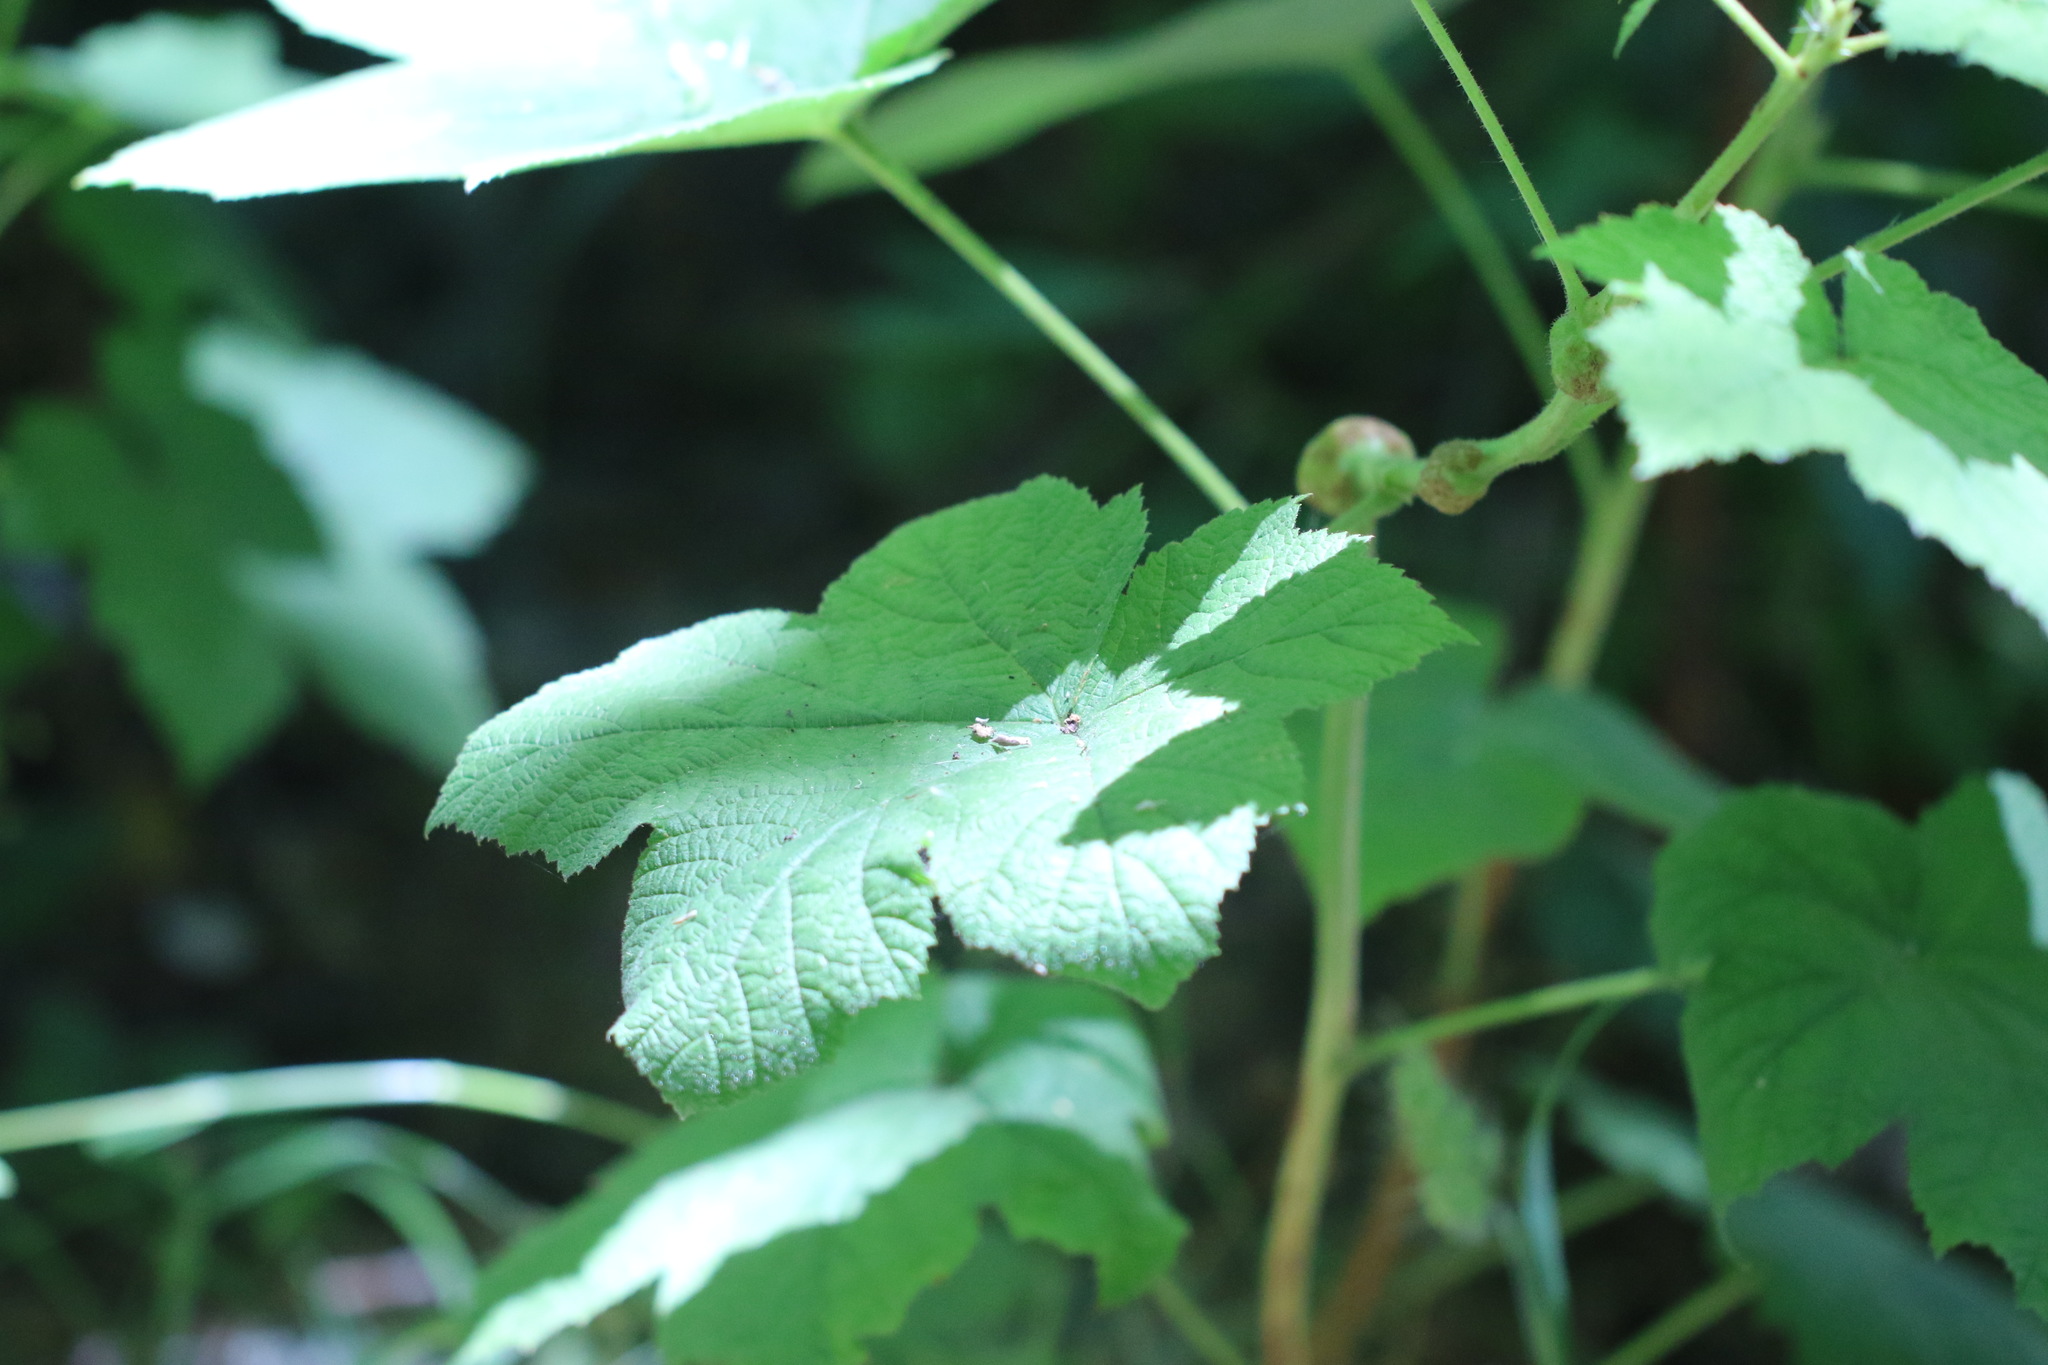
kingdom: Animalia
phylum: Arthropoda
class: Insecta
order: Hymenoptera
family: Cynipidae
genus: Diastrophus
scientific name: Diastrophus
